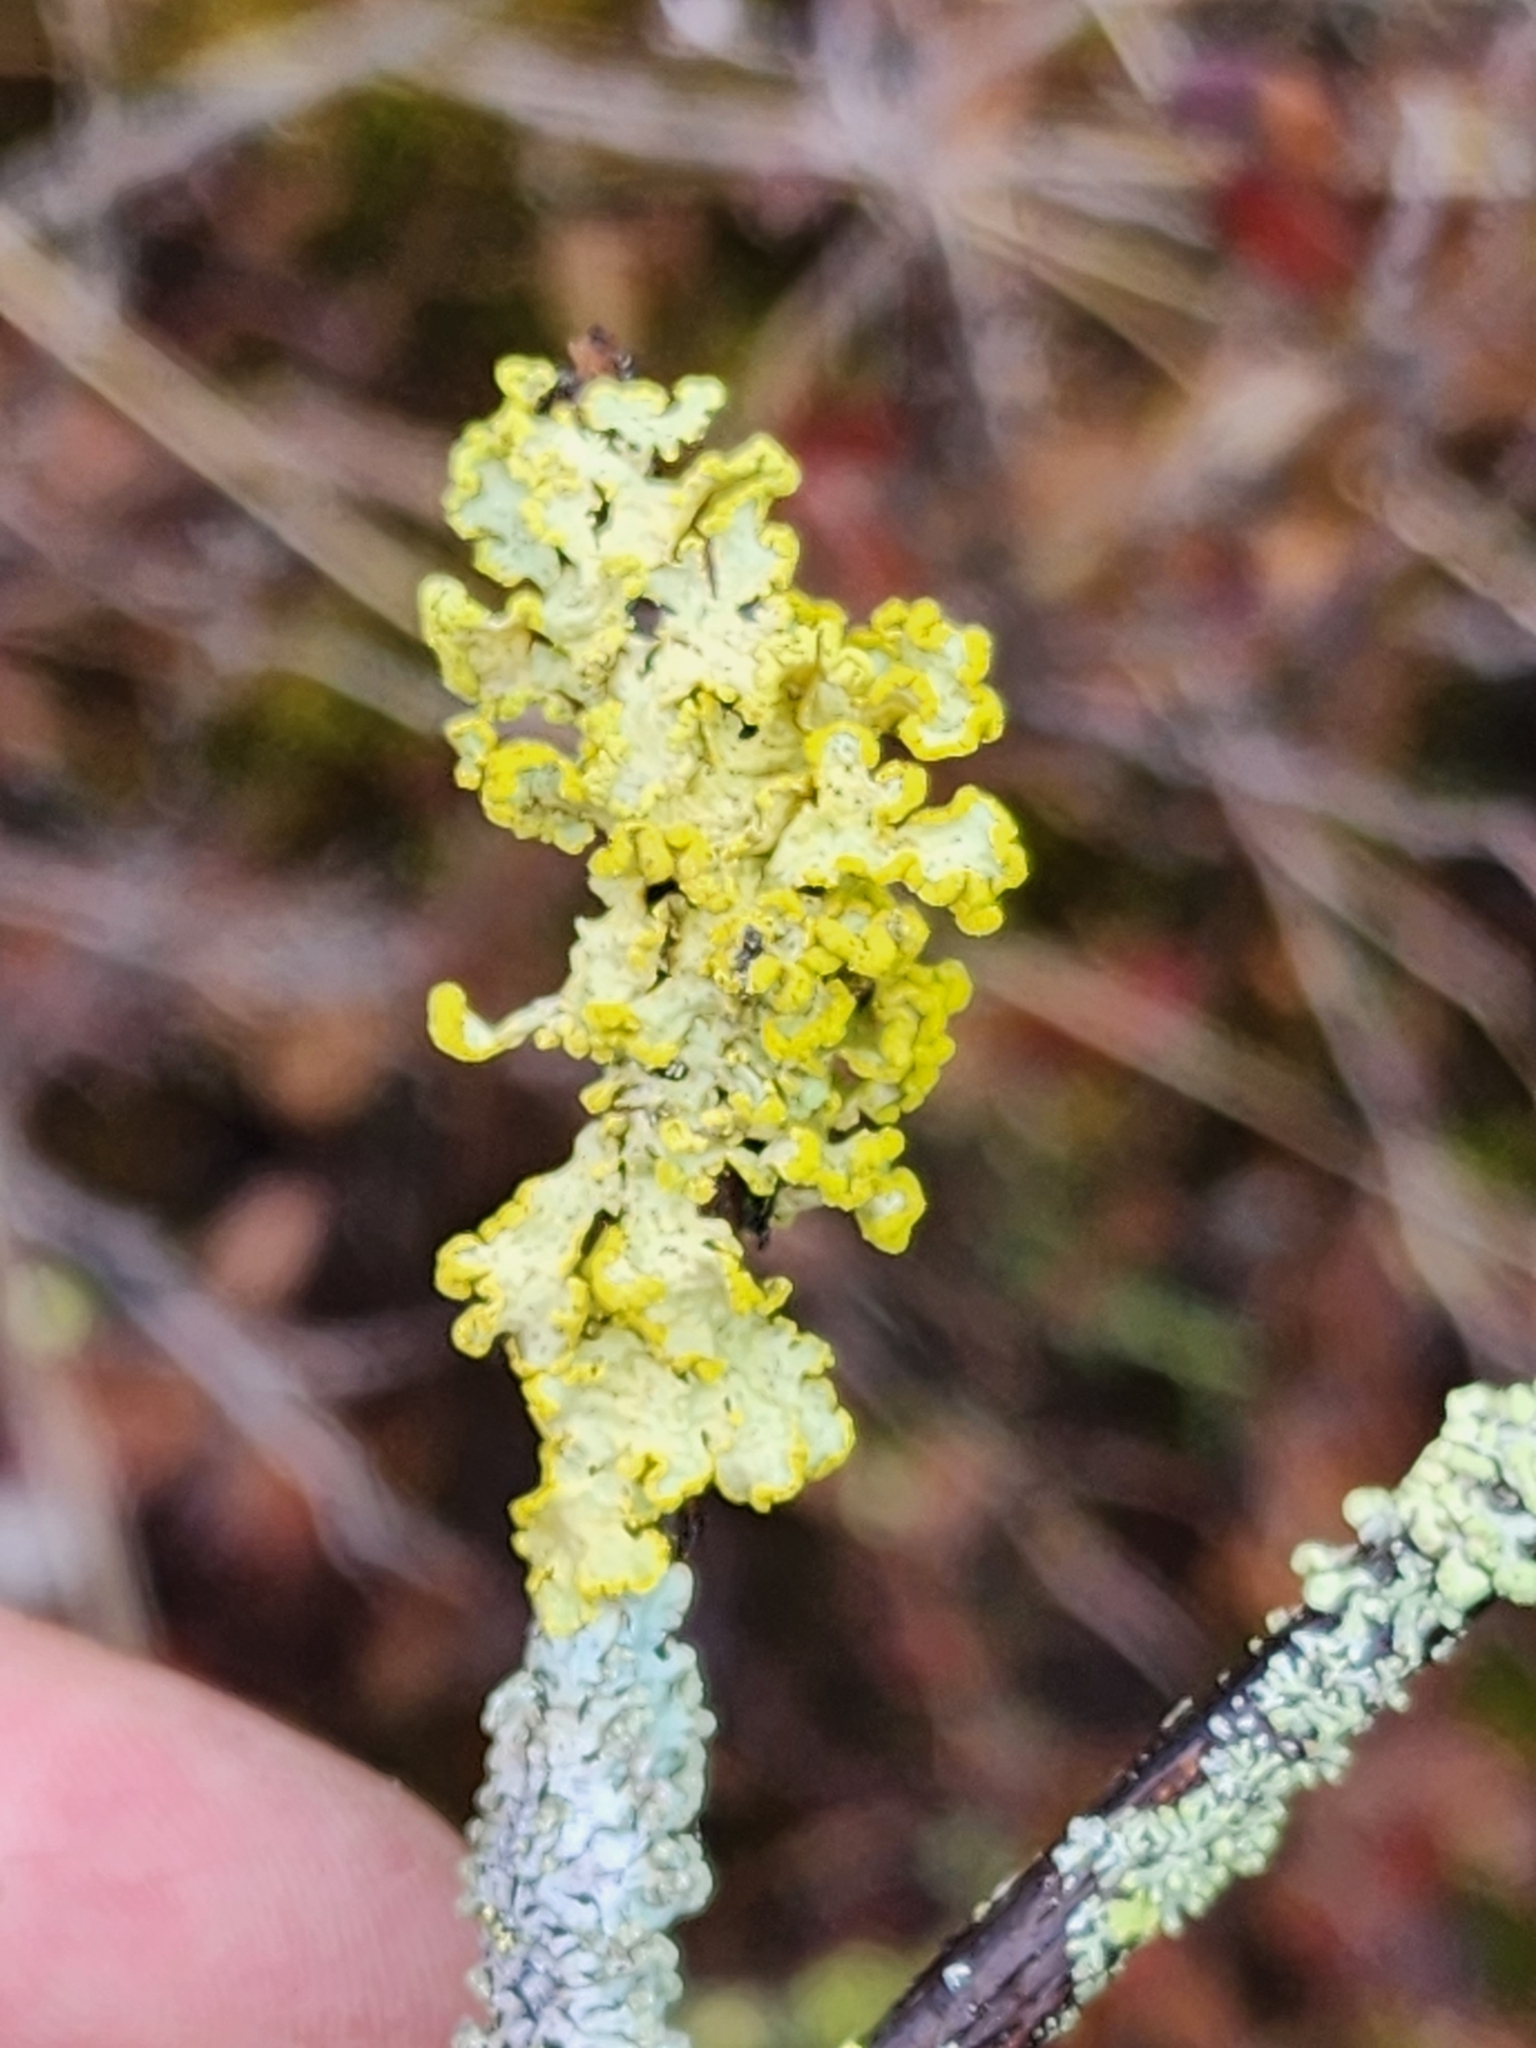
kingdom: Fungi
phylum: Ascomycota
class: Lecanoromycetes
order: Lecanorales
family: Parmeliaceae
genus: Vulpicida
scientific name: Vulpicida pinastri
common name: Powdered sunshine lichen
